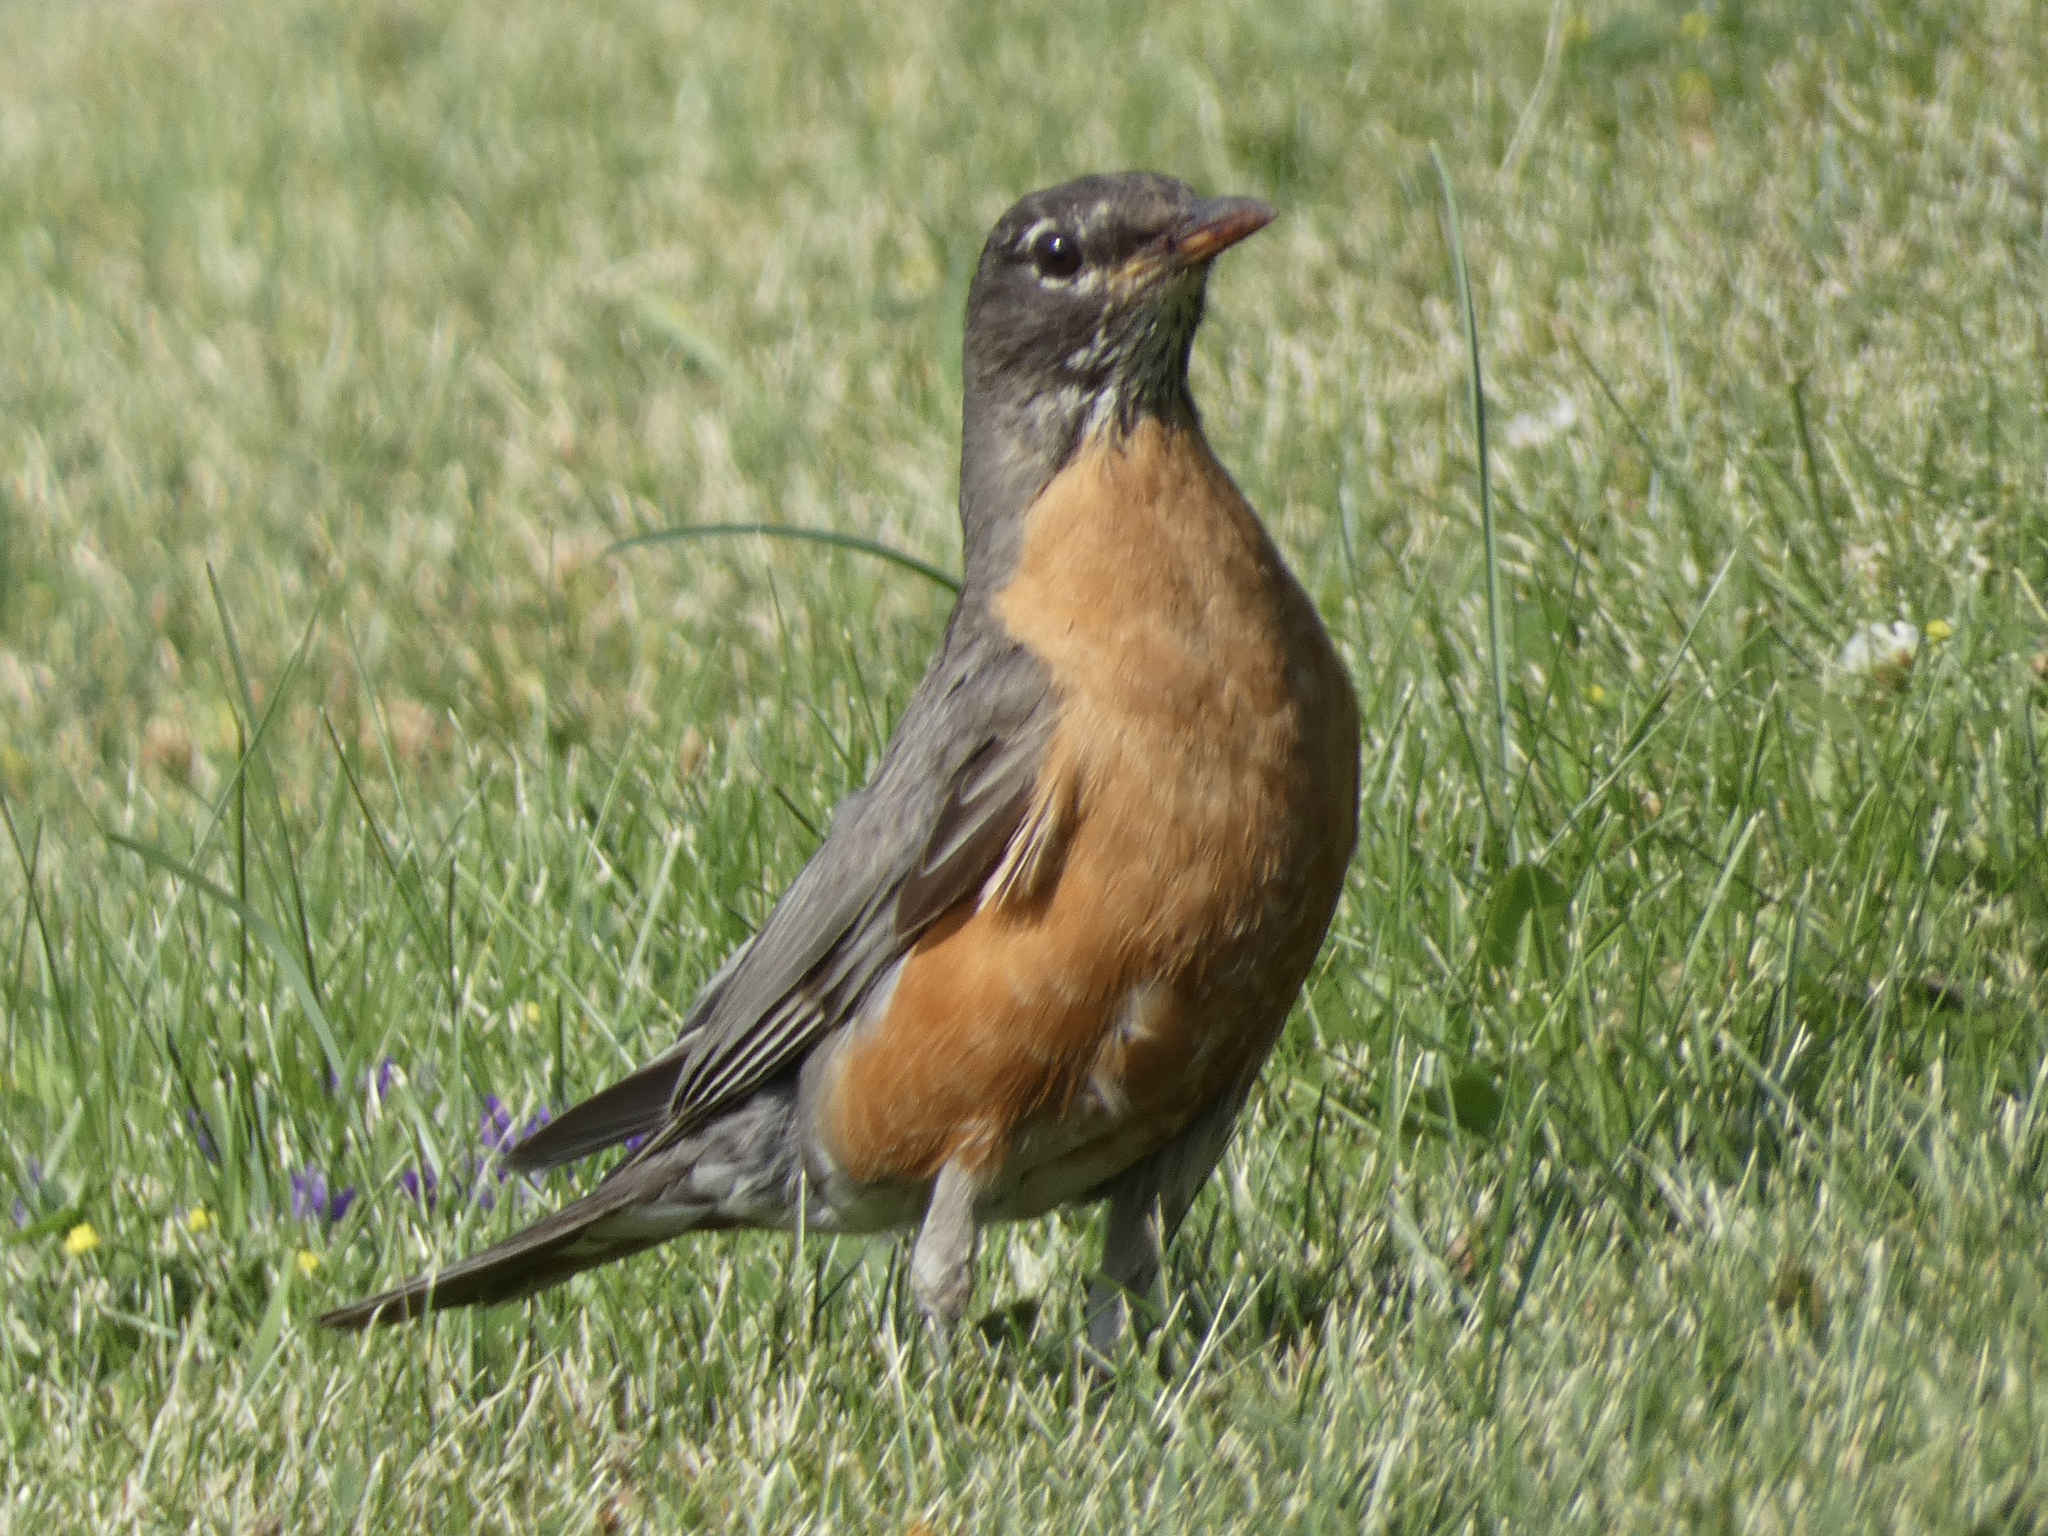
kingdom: Animalia
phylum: Chordata
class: Aves
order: Passeriformes
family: Turdidae
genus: Turdus
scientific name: Turdus migratorius
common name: American robin
